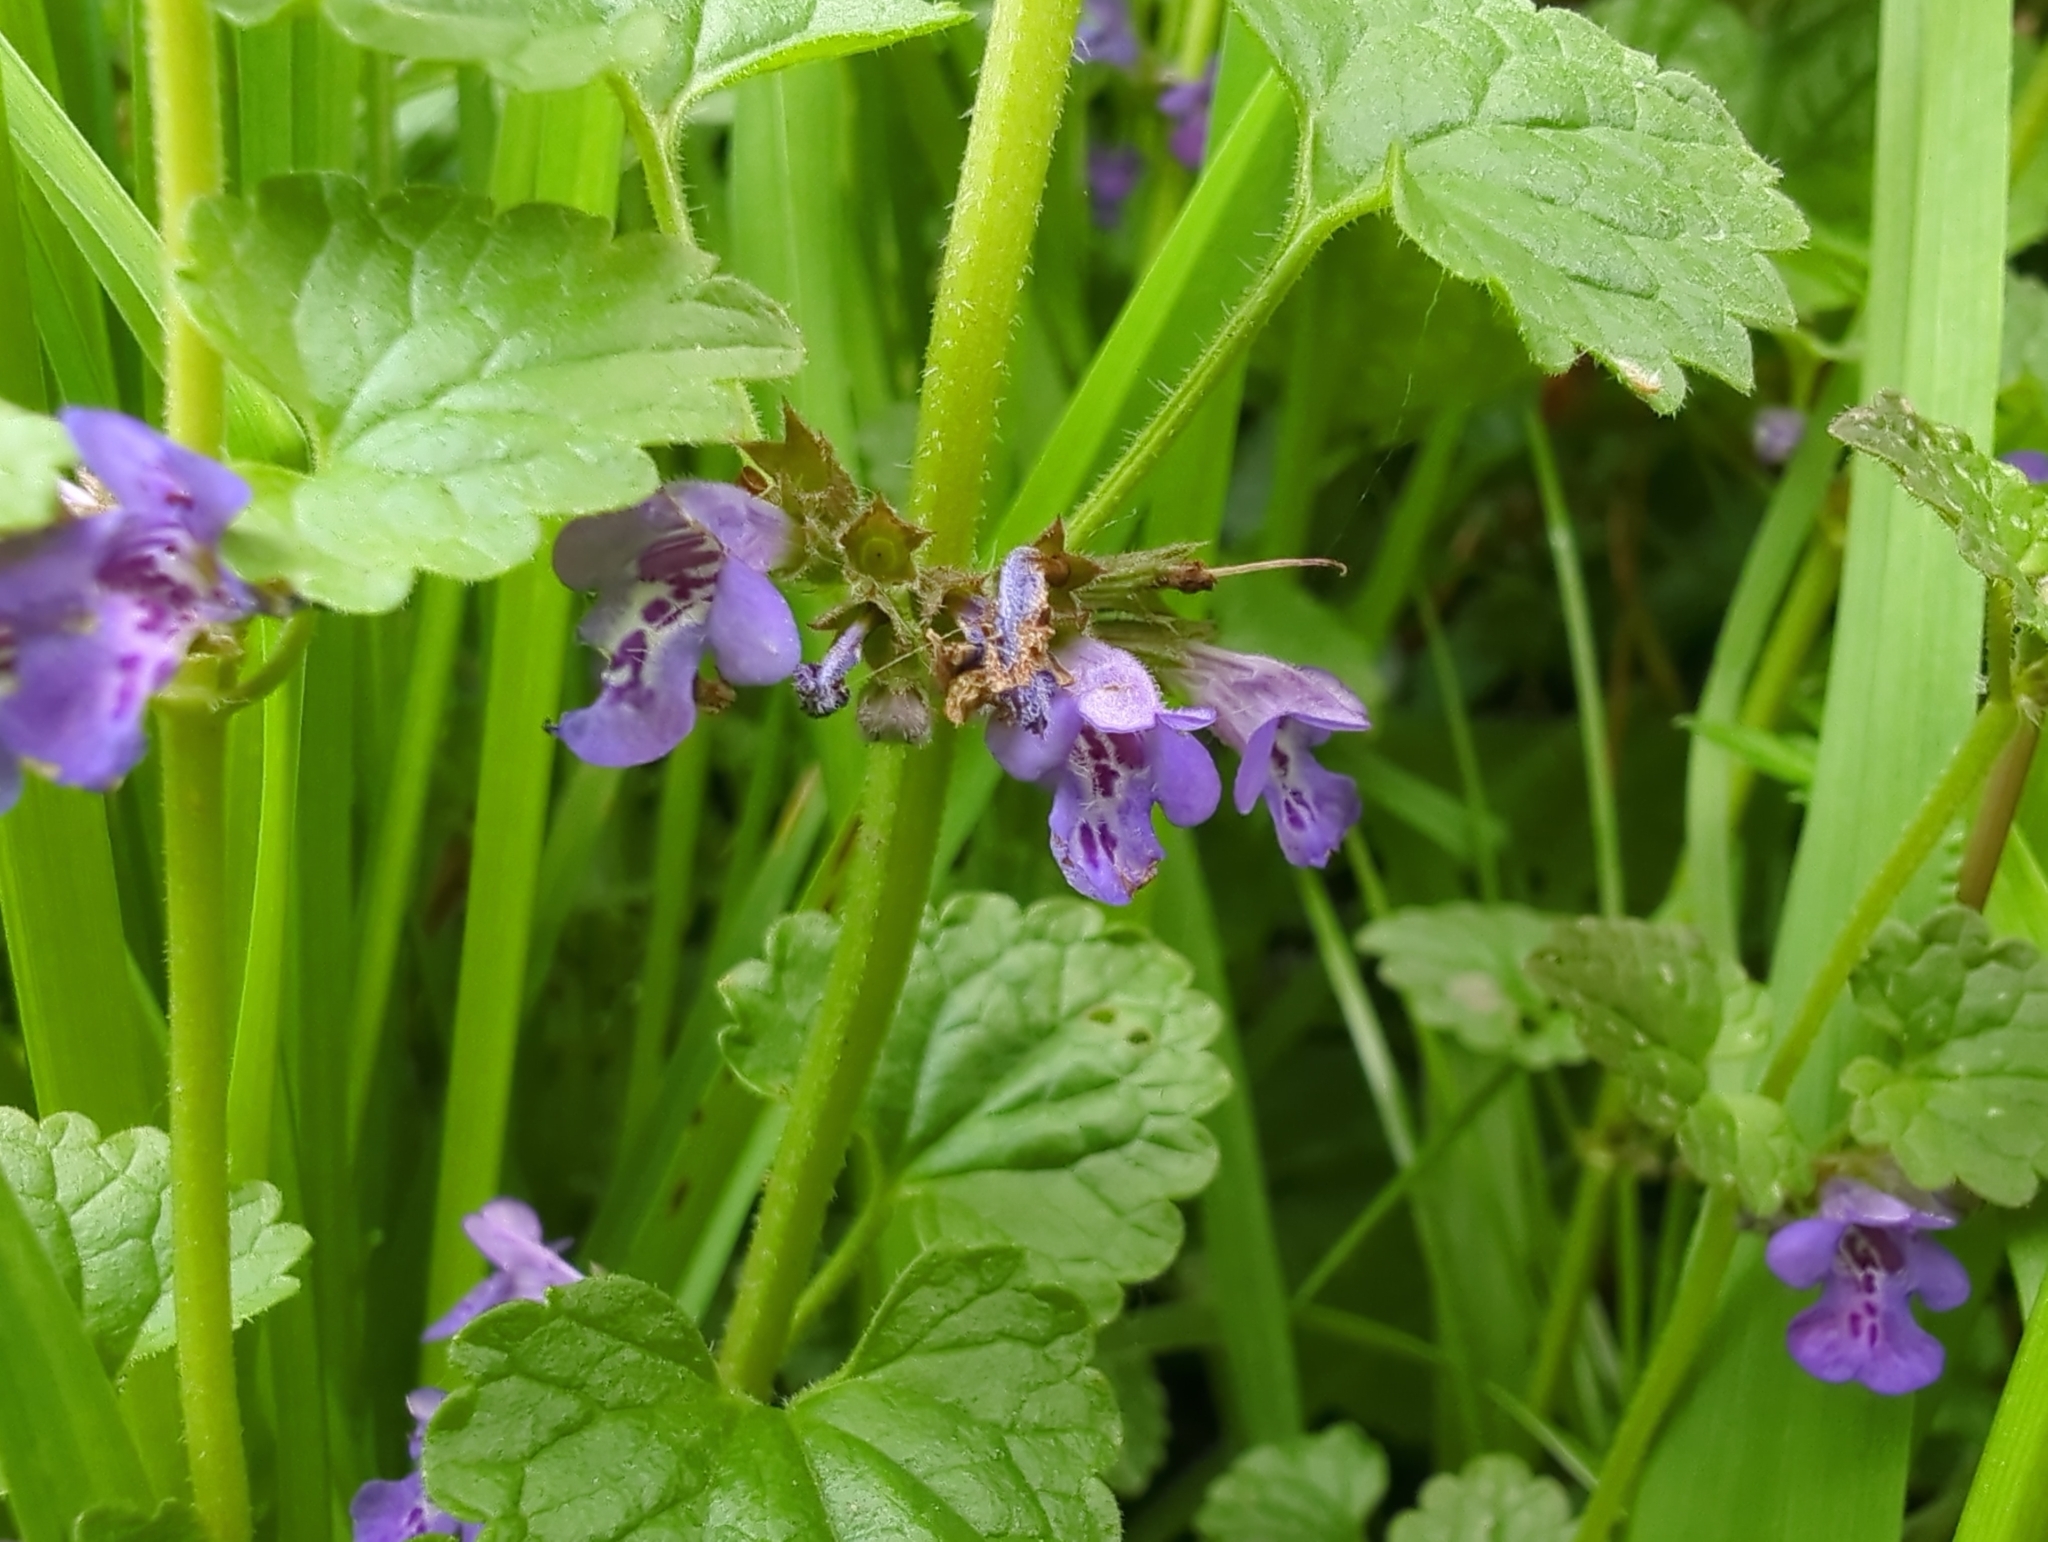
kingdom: Plantae
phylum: Tracheophyta
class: Magnoliopsida
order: Lamiales
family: Lamiaceae
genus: Glechoma
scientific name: Glechoma hederacea
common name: Ground ivy
